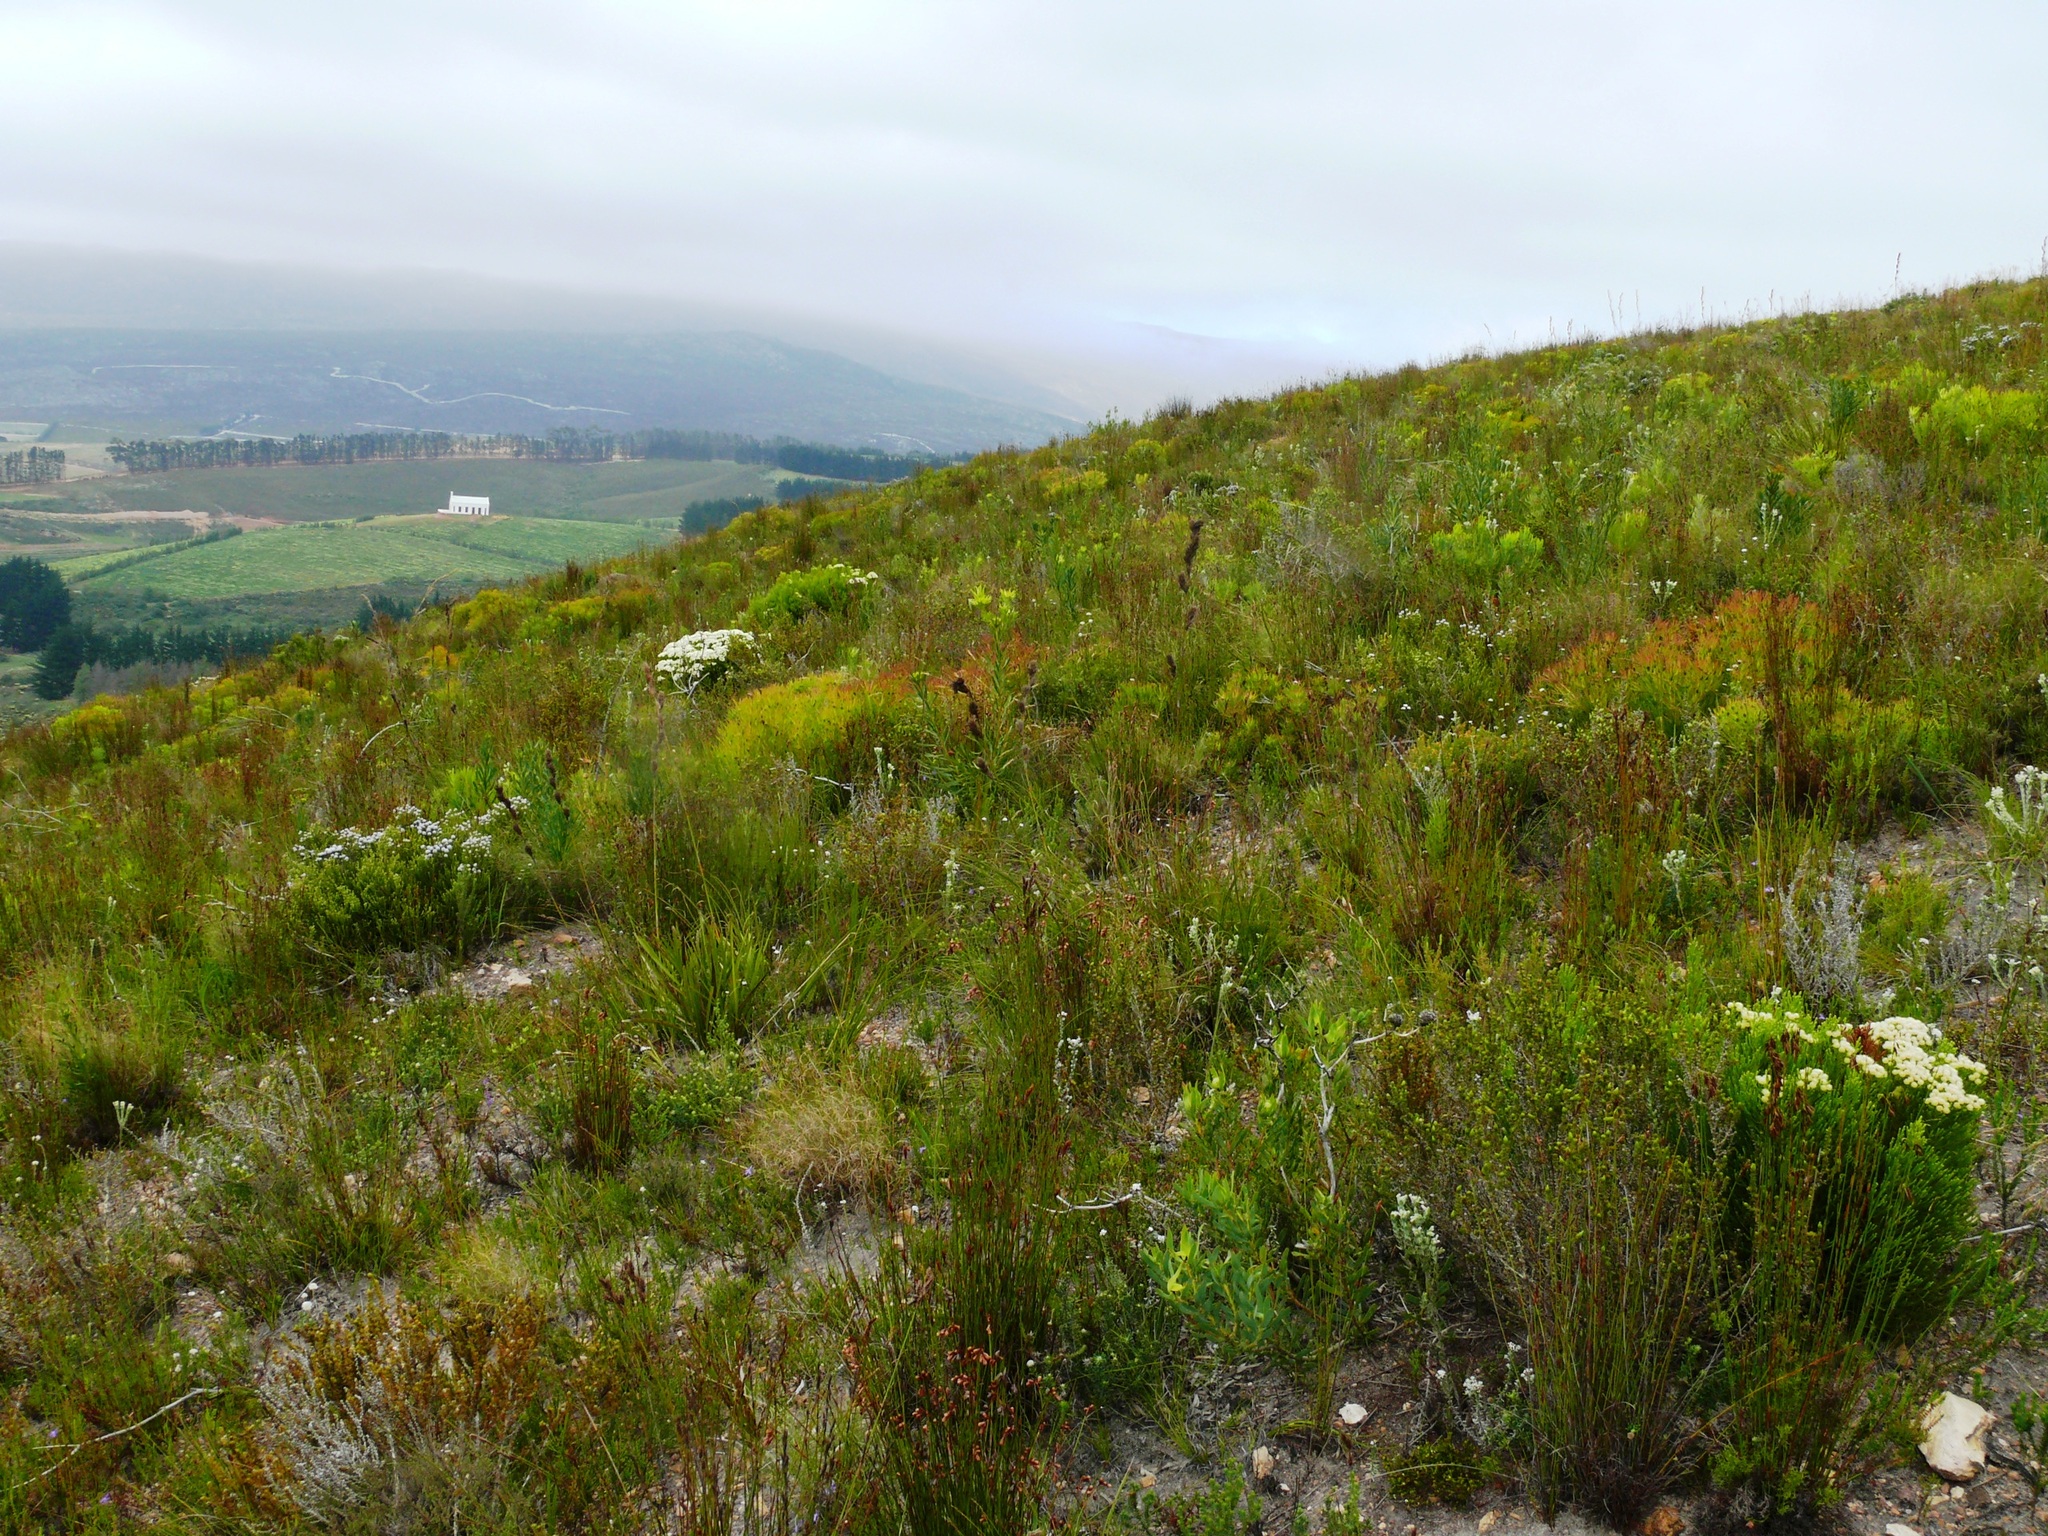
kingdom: Plantae
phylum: Tracheophyta
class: Magnoliopsida
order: Proteales
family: Proteaceae
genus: Leucadendron
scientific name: Leucadendron salignum
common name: Common sunshine conebush
